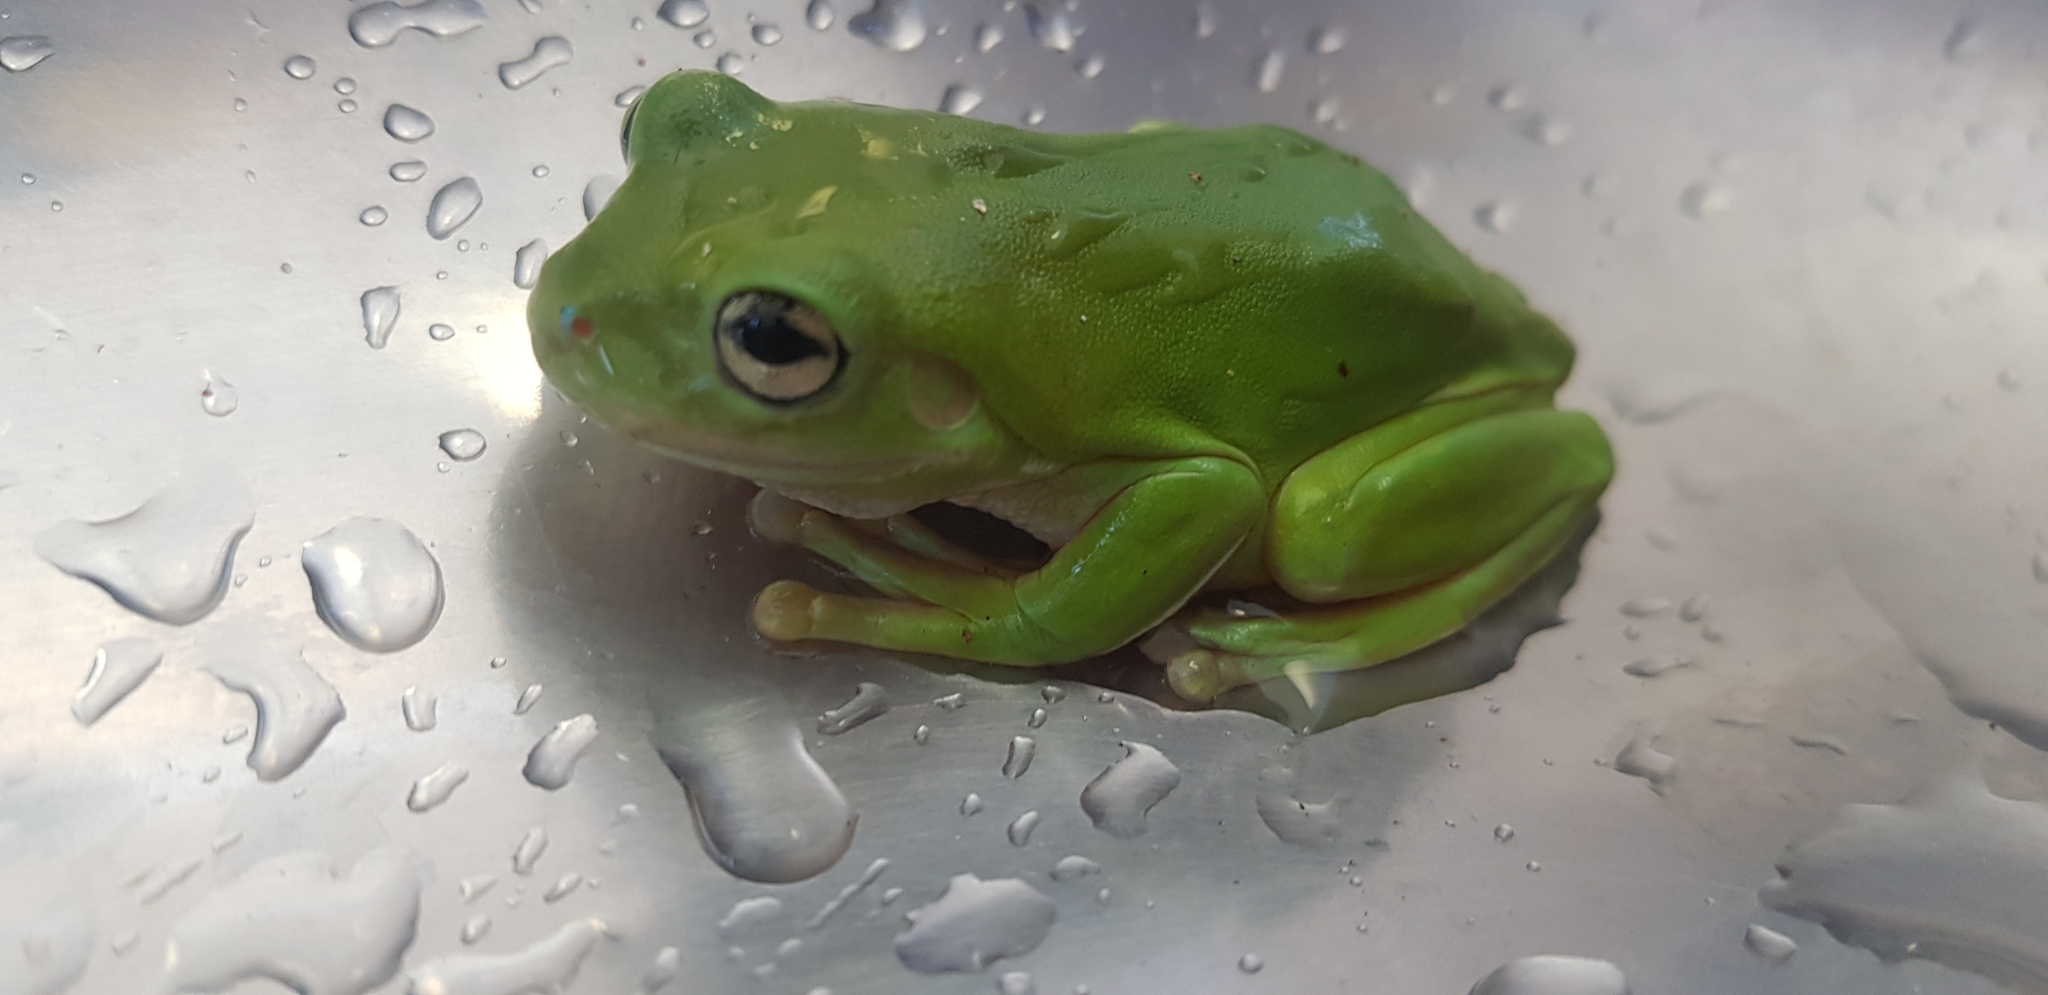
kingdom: Animalia
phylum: Chordata
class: Amphibia
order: Anura
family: Pelodryadidae
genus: Ranoidea
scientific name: Ranoidea caerulea
